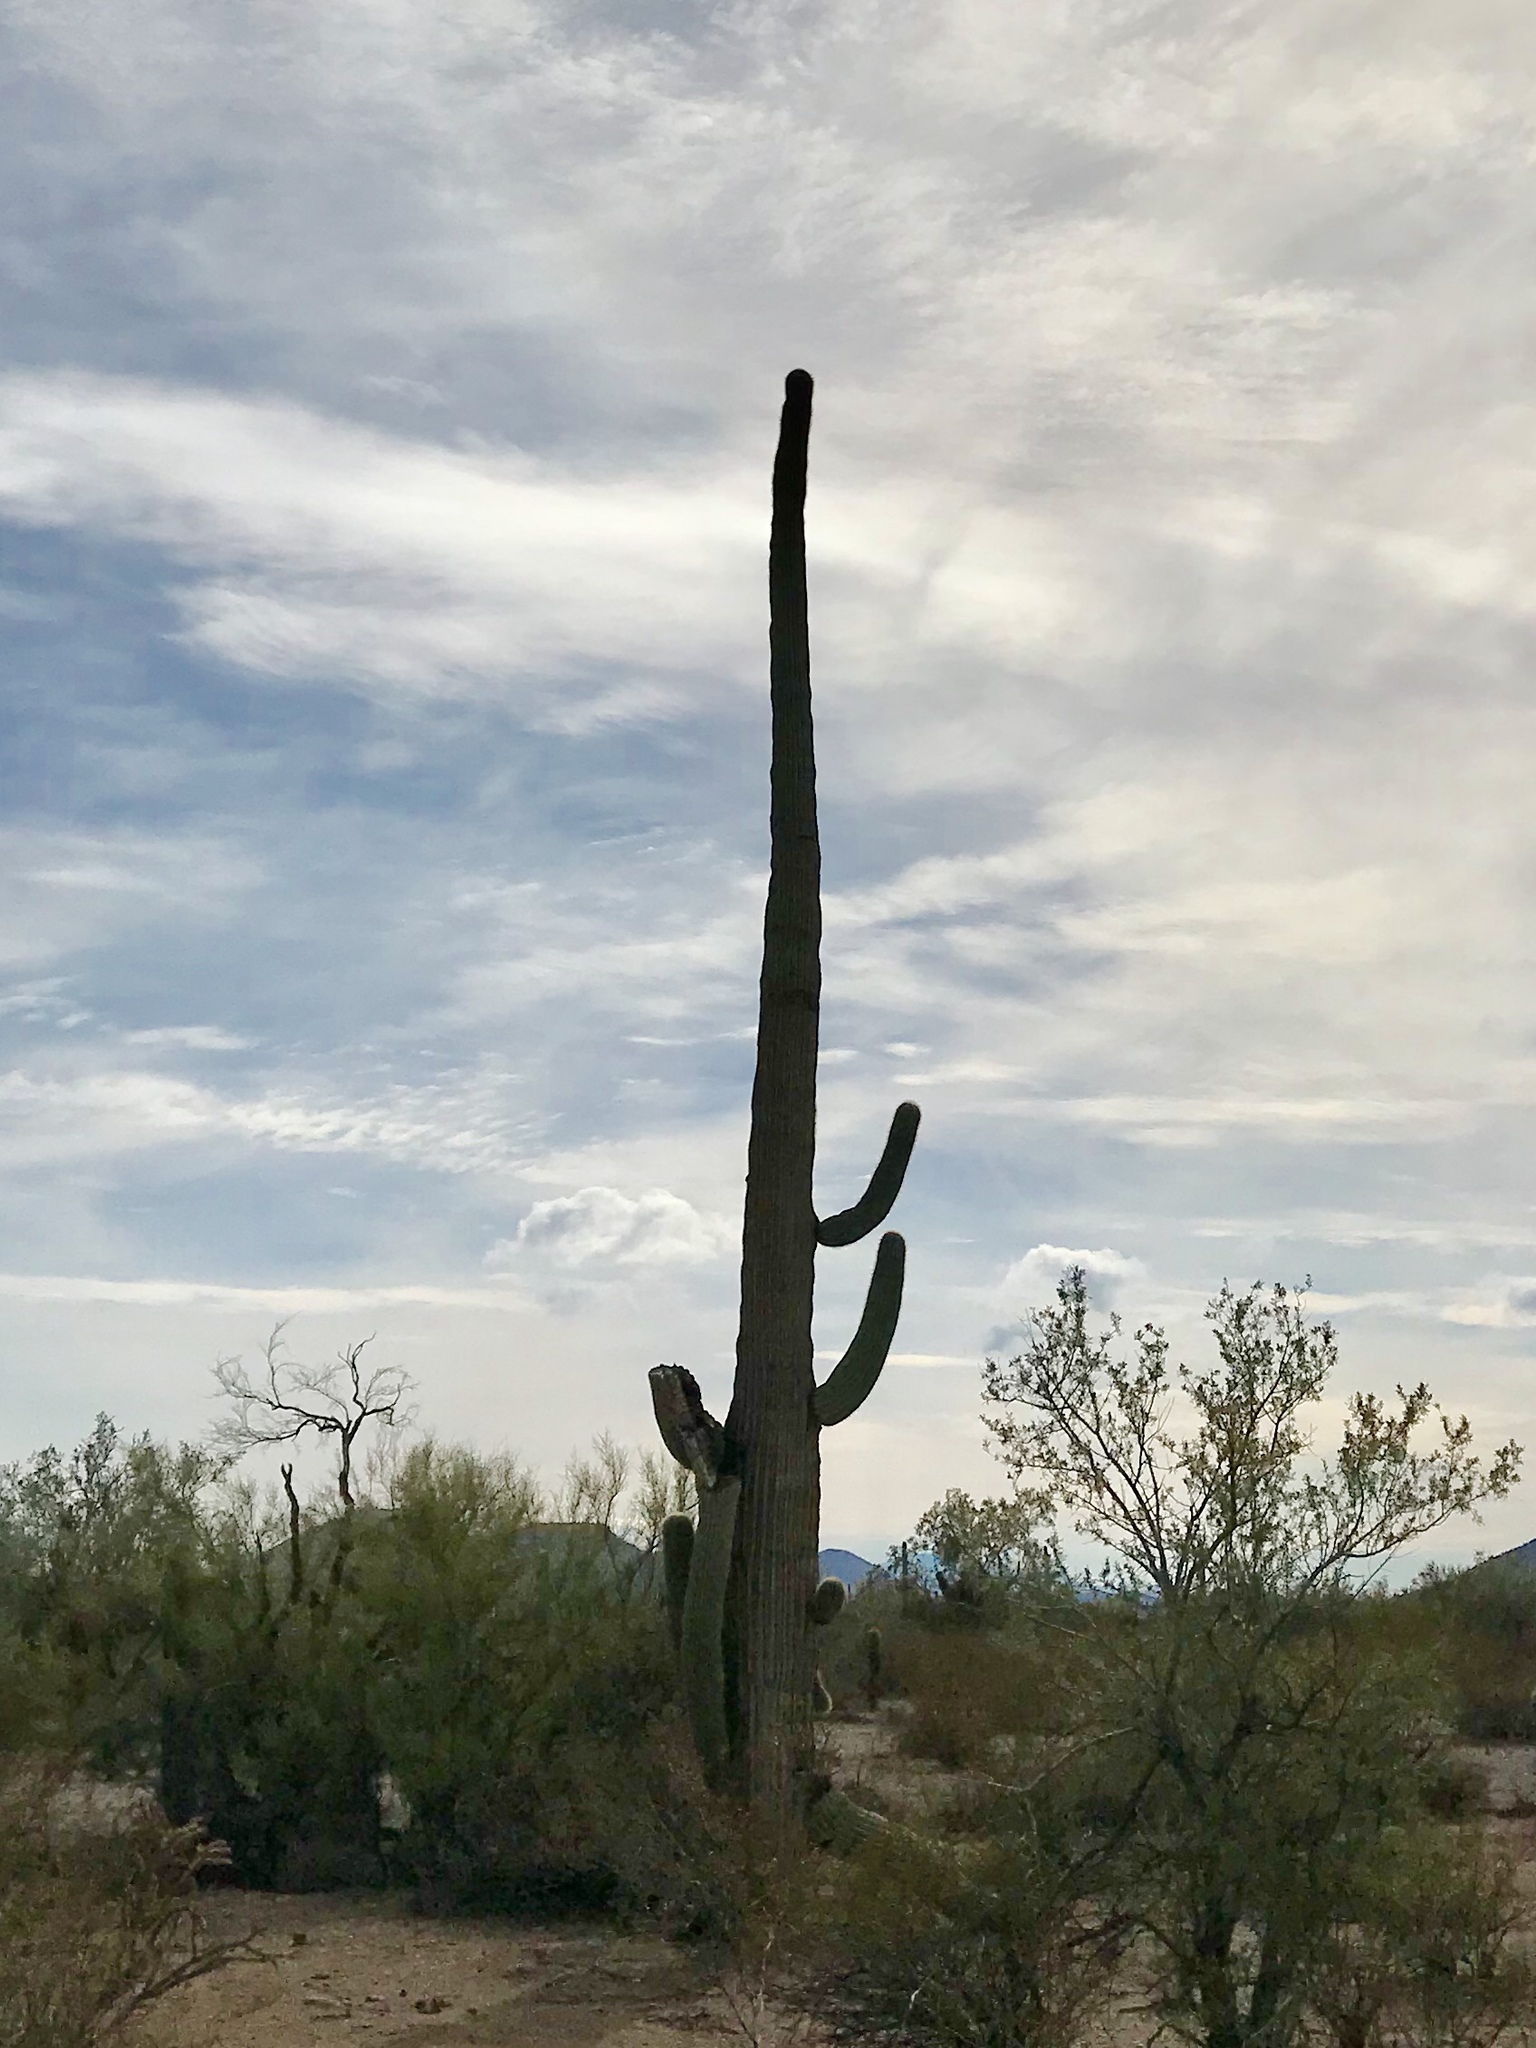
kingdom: Plantae
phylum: Tracheophyta
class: Magnoliopsida
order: Caryophyllales
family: Cactaceae
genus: Carnegiea
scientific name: Carnegiea gigantea
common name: Saguaro
